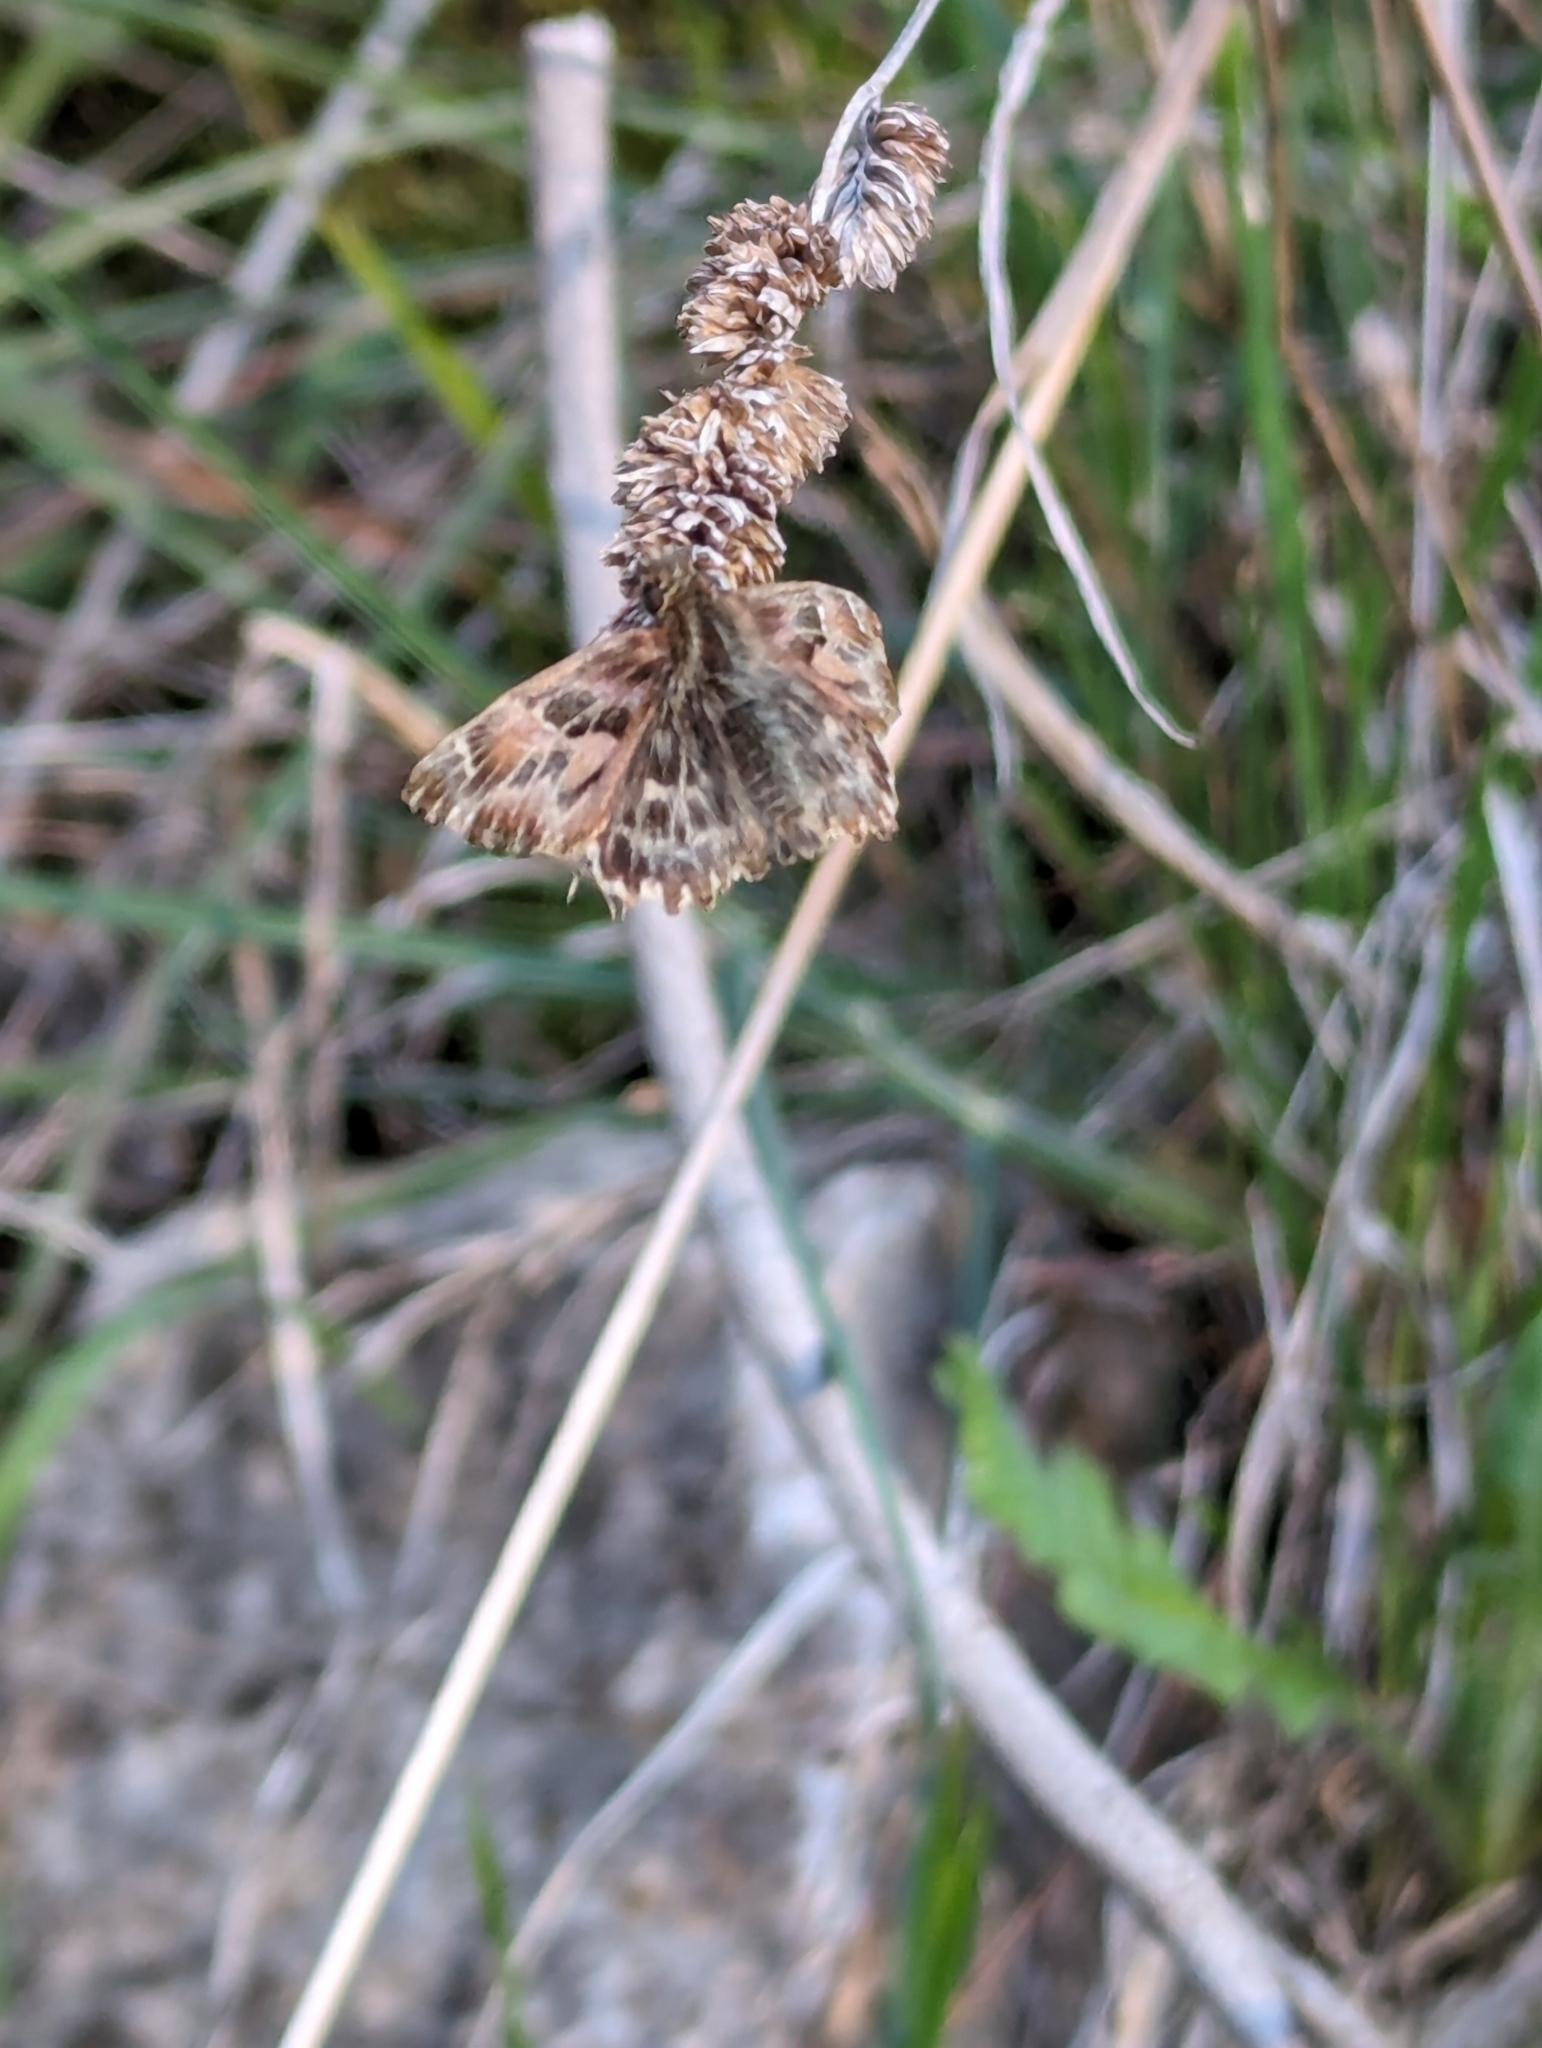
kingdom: Animalia
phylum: Arthropoda
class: Insecta
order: Lepidoptera
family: Hesperiidae
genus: Carcharodus
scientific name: Carcharodus alceae
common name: Mallow skipper
